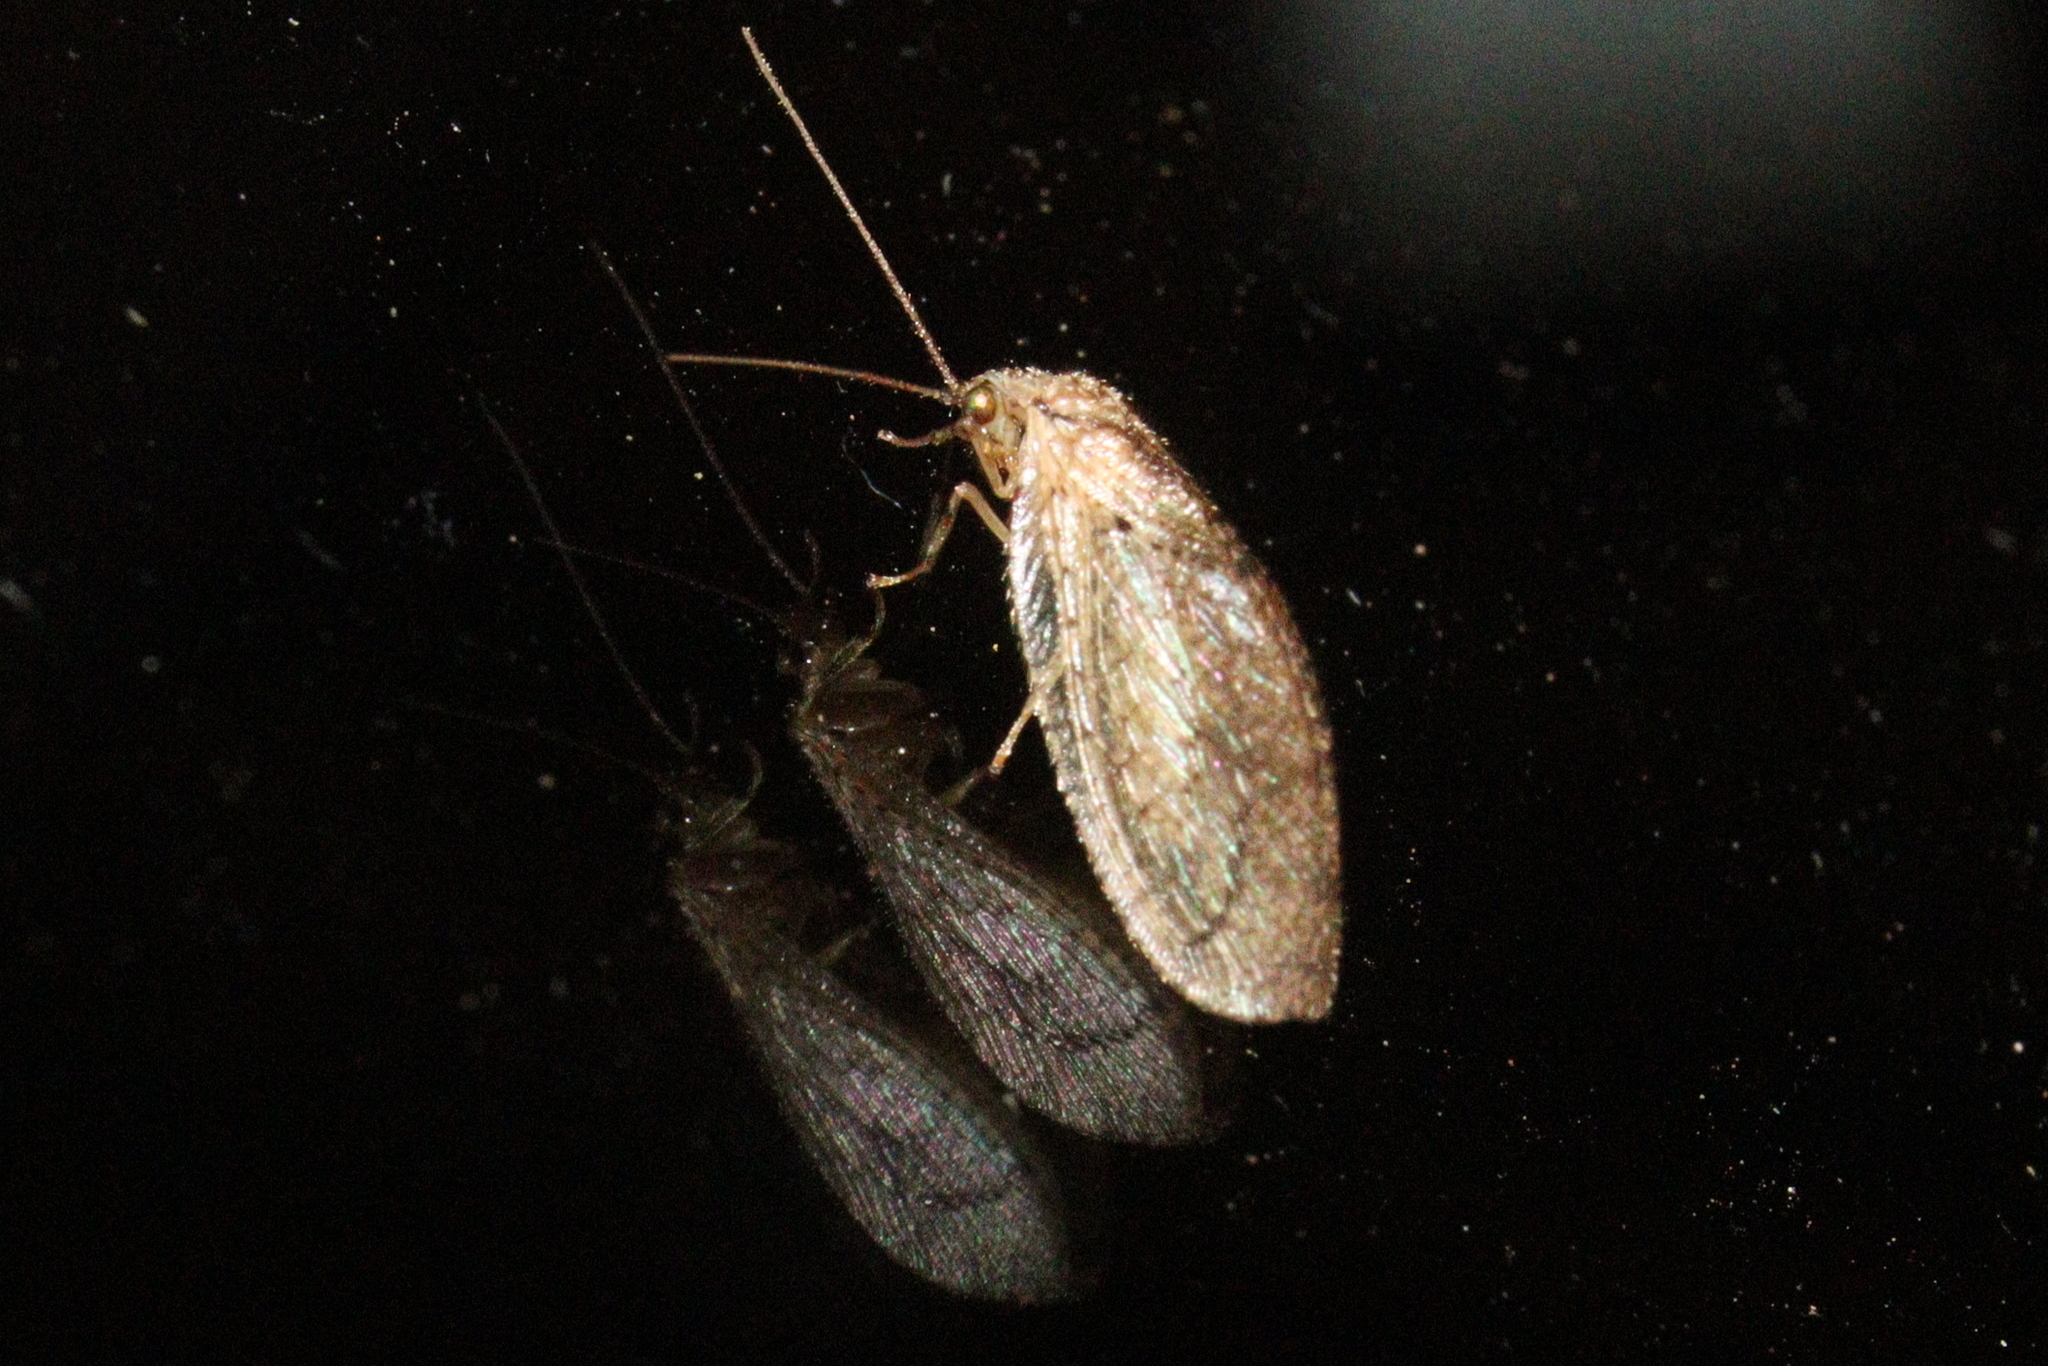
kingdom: Animalia
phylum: Arthropoda
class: Insecta
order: Neuroptera
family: Hemerobiidae
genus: Nusalala
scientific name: Nusalala tessellata
